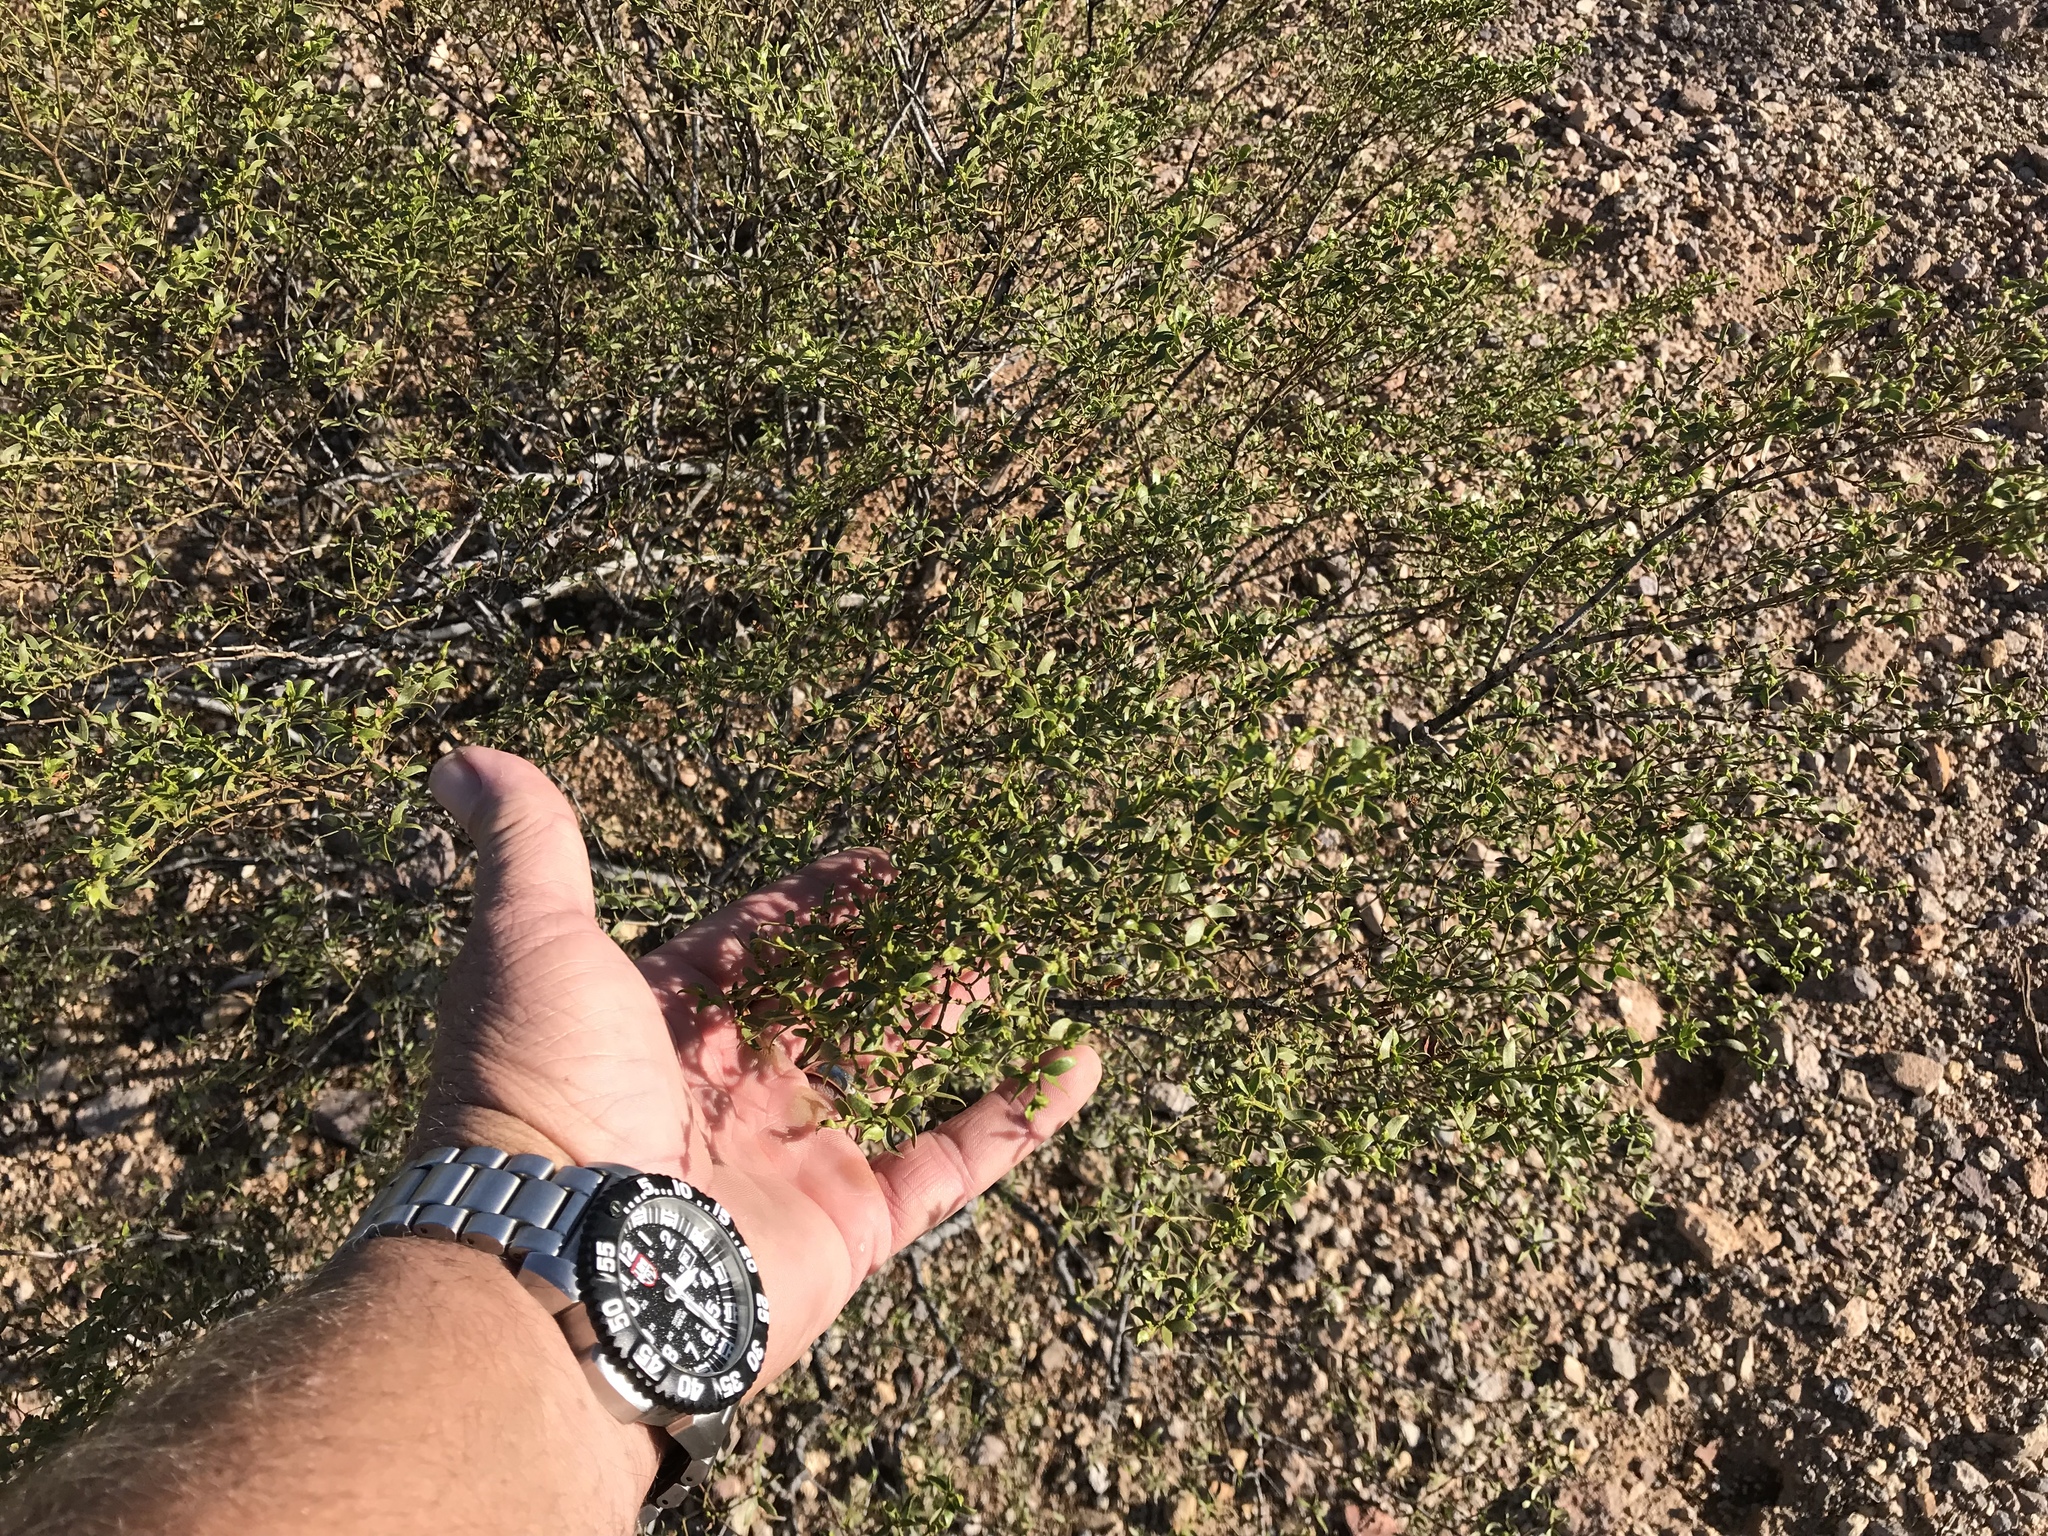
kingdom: Plantae
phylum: Tracheophyta
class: Magnoliopsida
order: Zygophyllales
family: Zygophyllaceae
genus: Larrea
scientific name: Larrea tridentata
